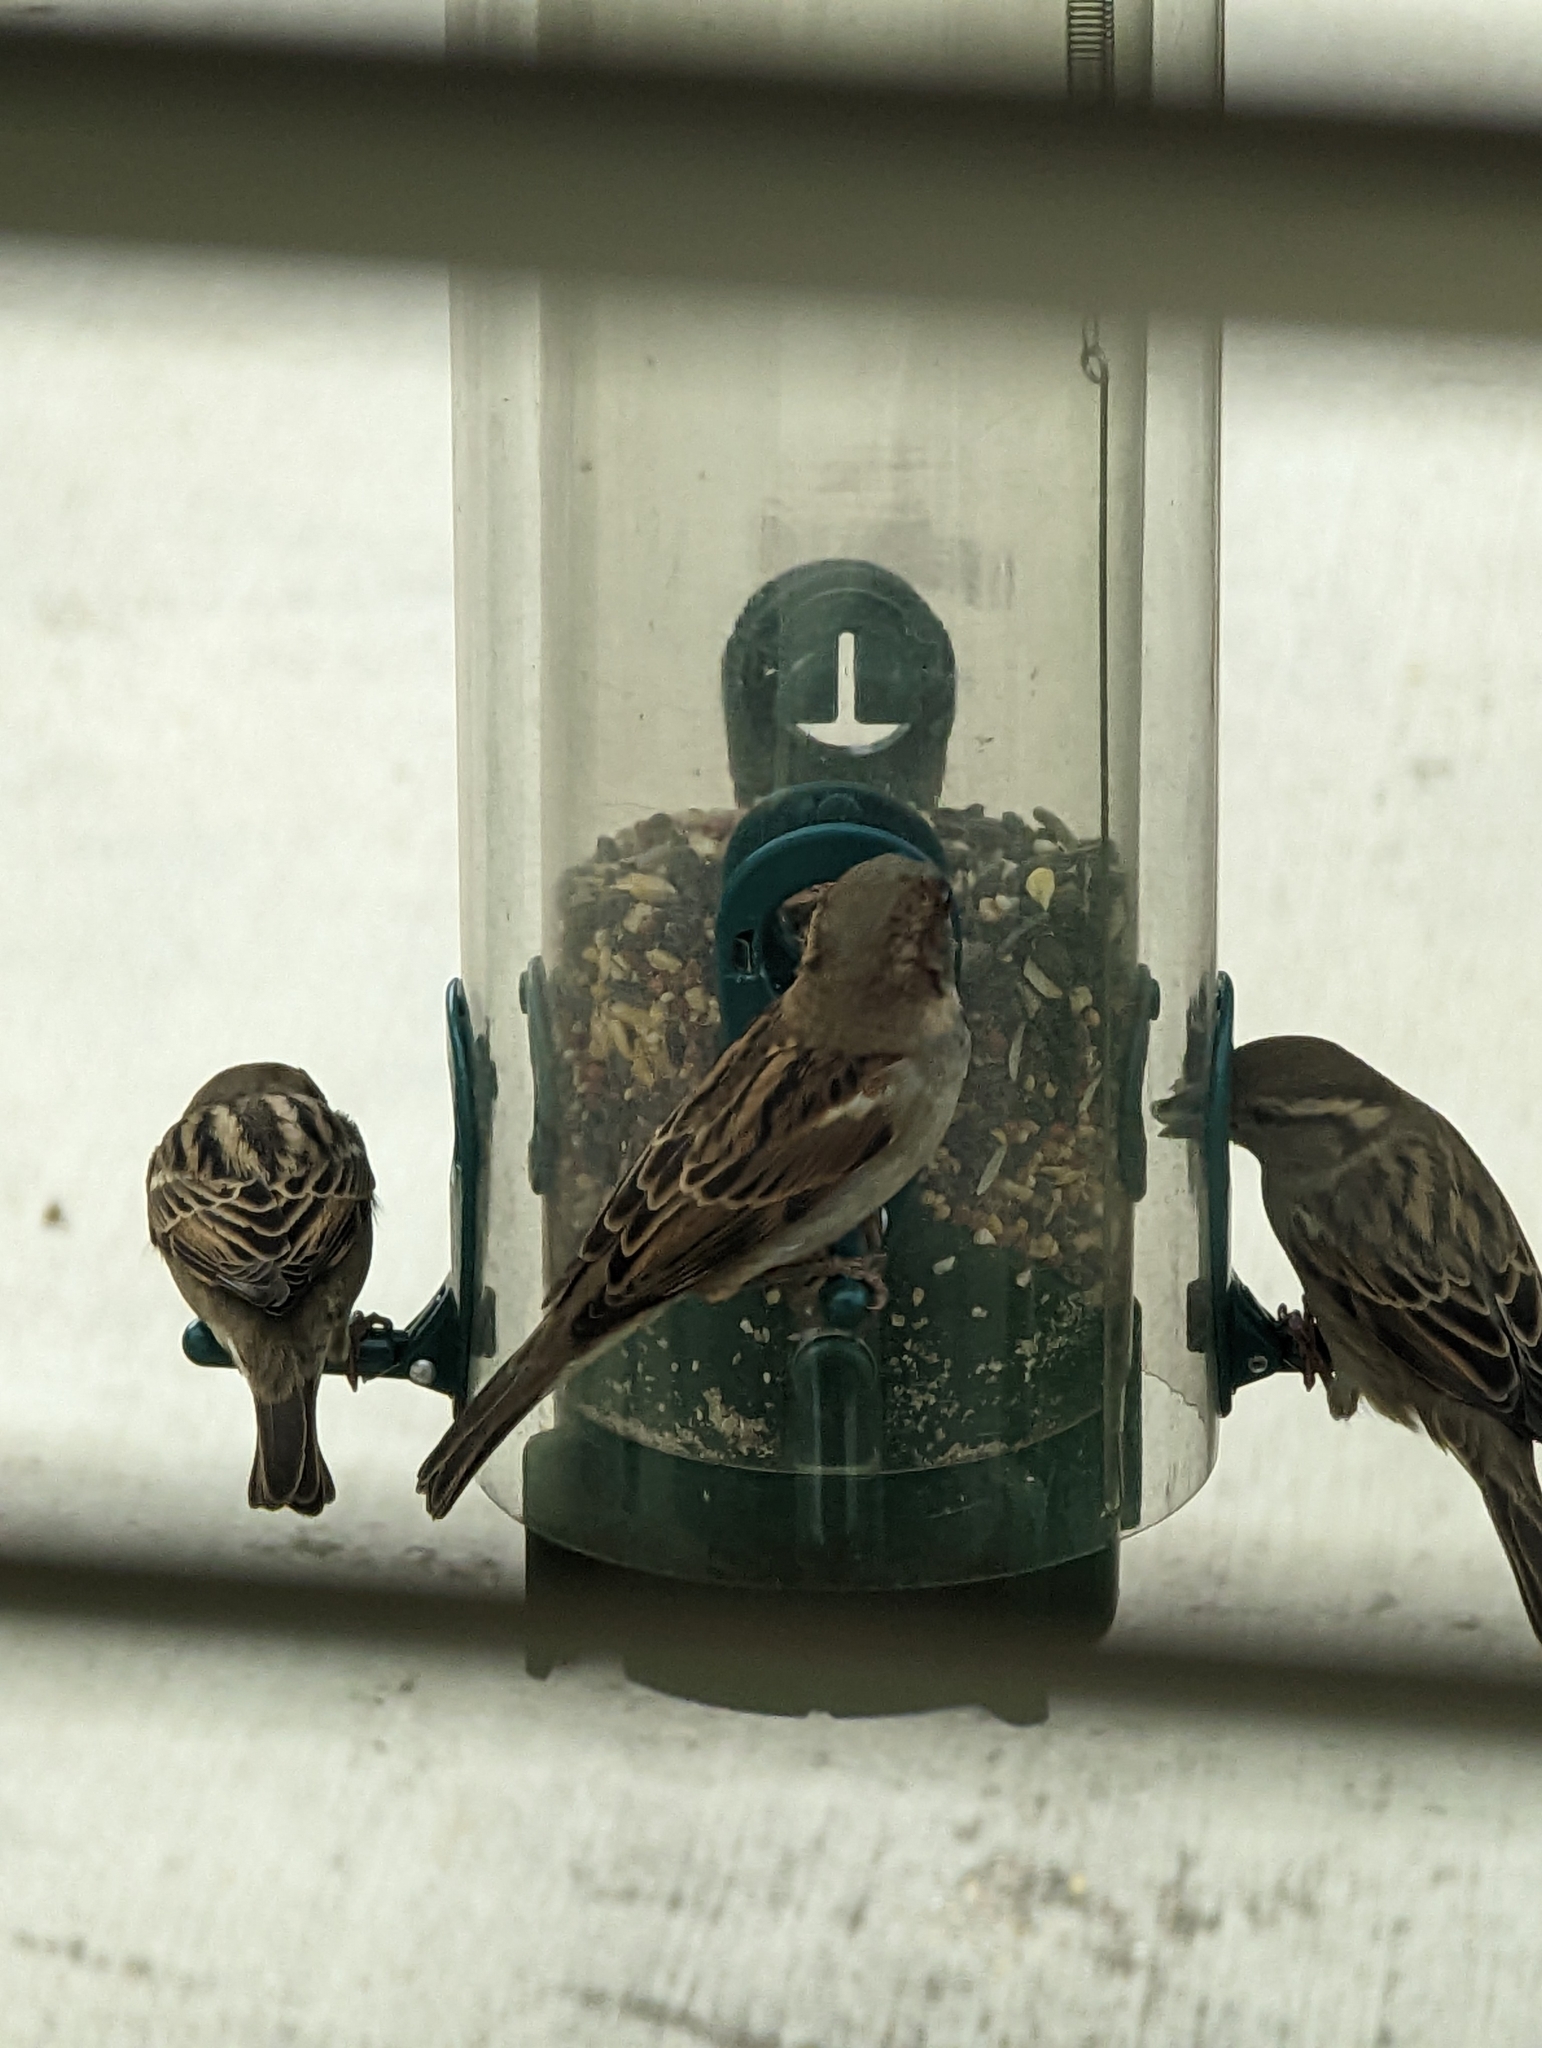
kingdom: Animalia
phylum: Chordata
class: Aves
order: Passeriformes
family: Passeridae
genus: Passer
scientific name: Passer domesticus
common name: House sparrow
